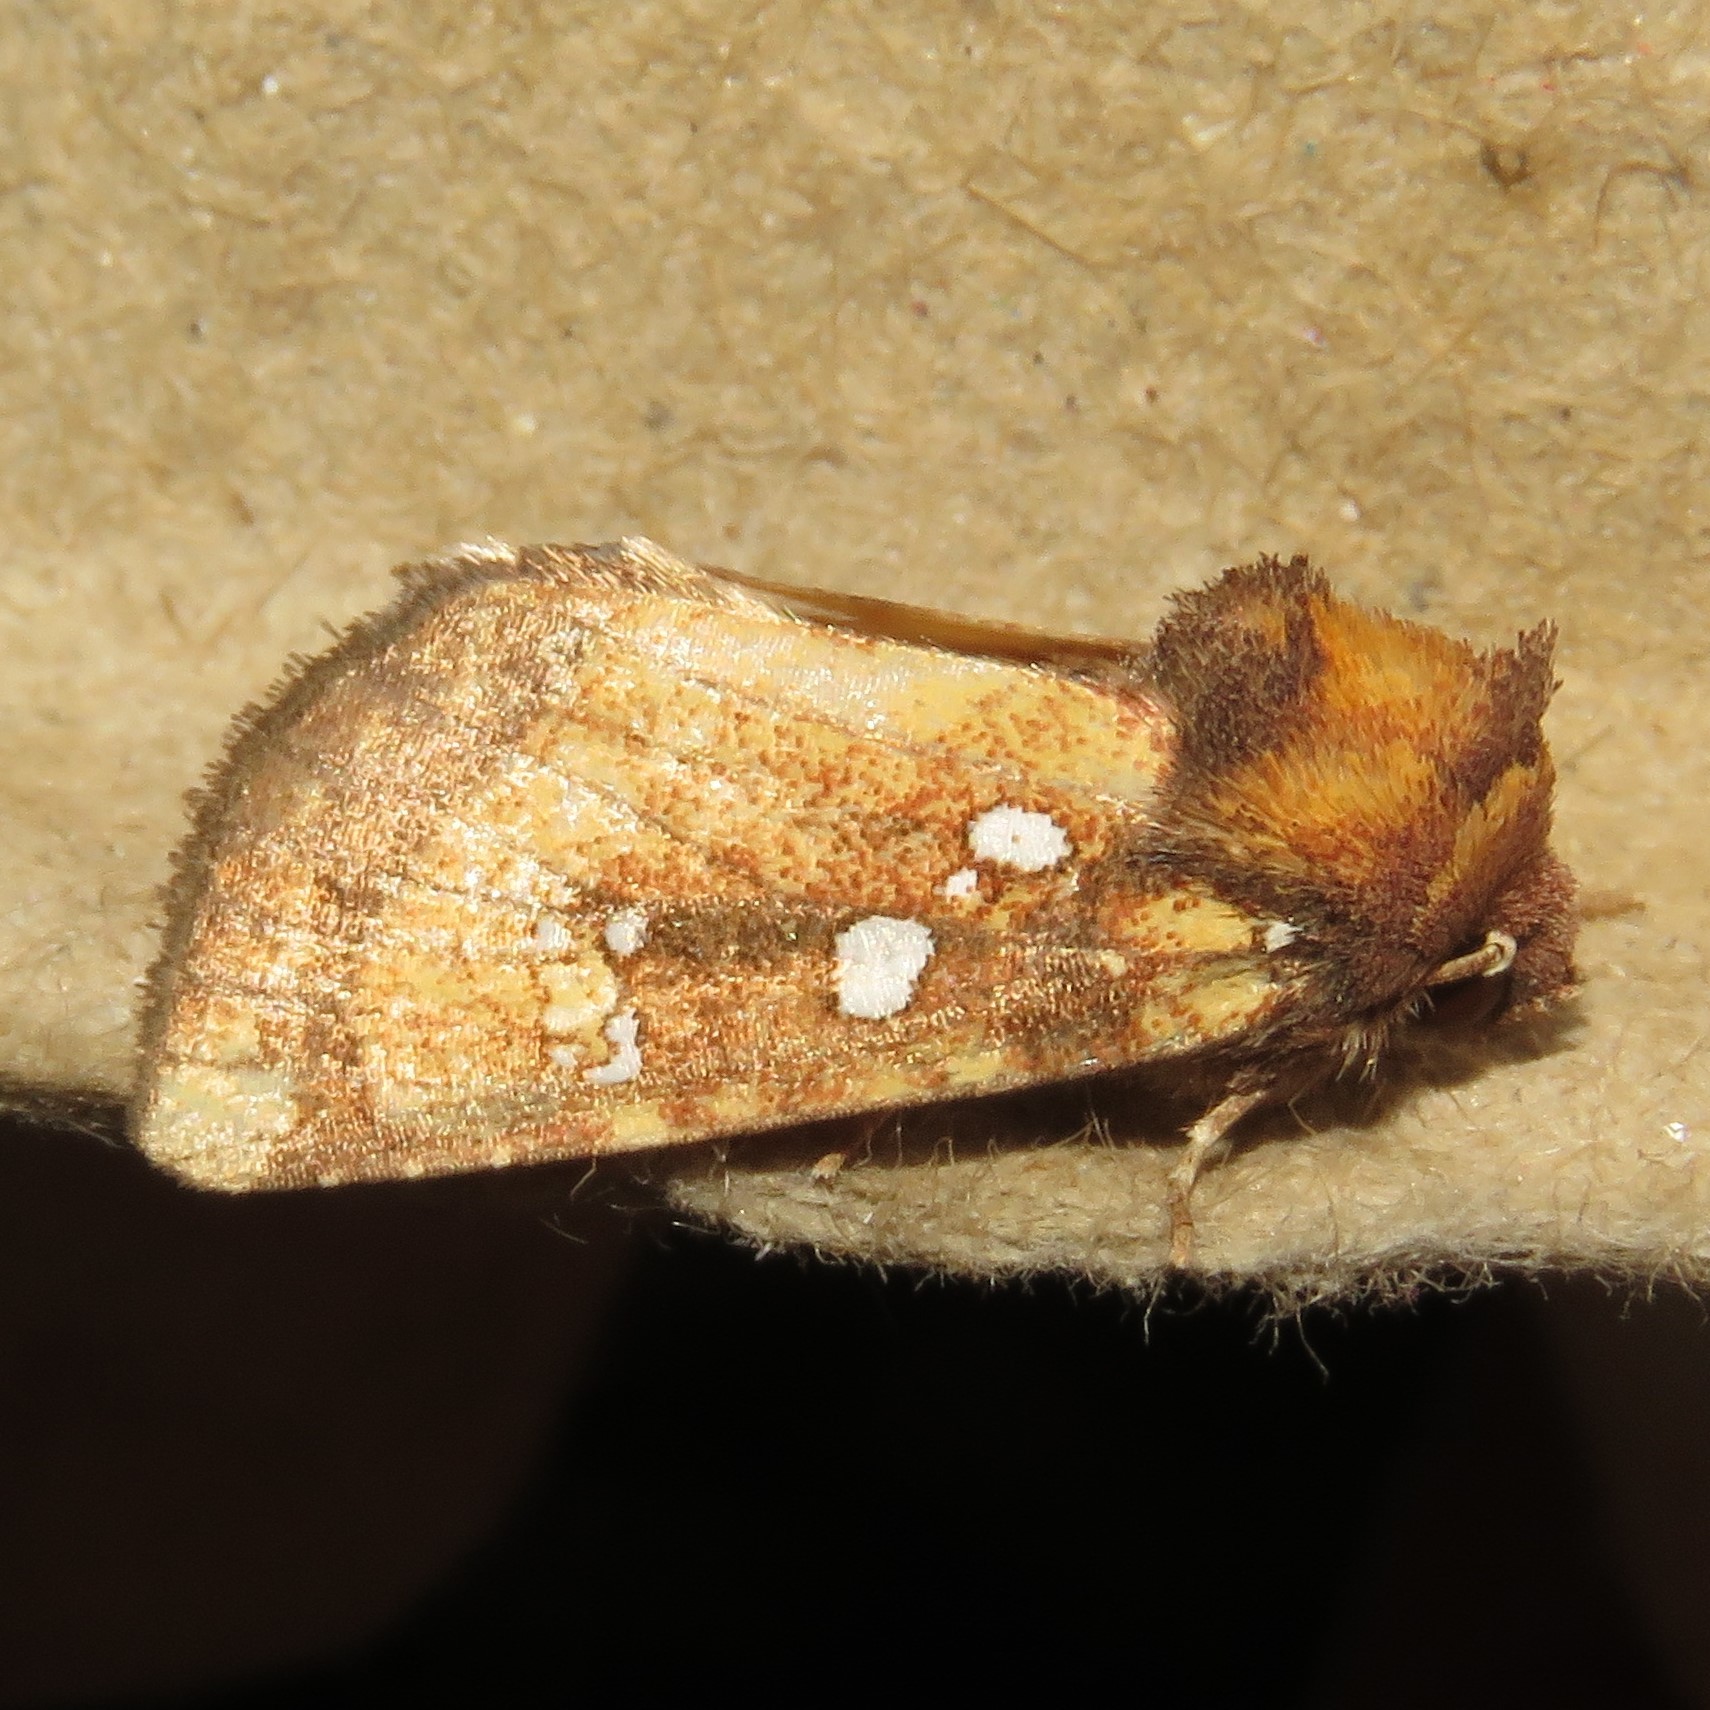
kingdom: Animalia
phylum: Arthropoda
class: Insecta
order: Lepidoptera
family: Noctuidae
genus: Papaipema
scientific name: Papaipema arctivorens
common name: Northern burdock borer moth
